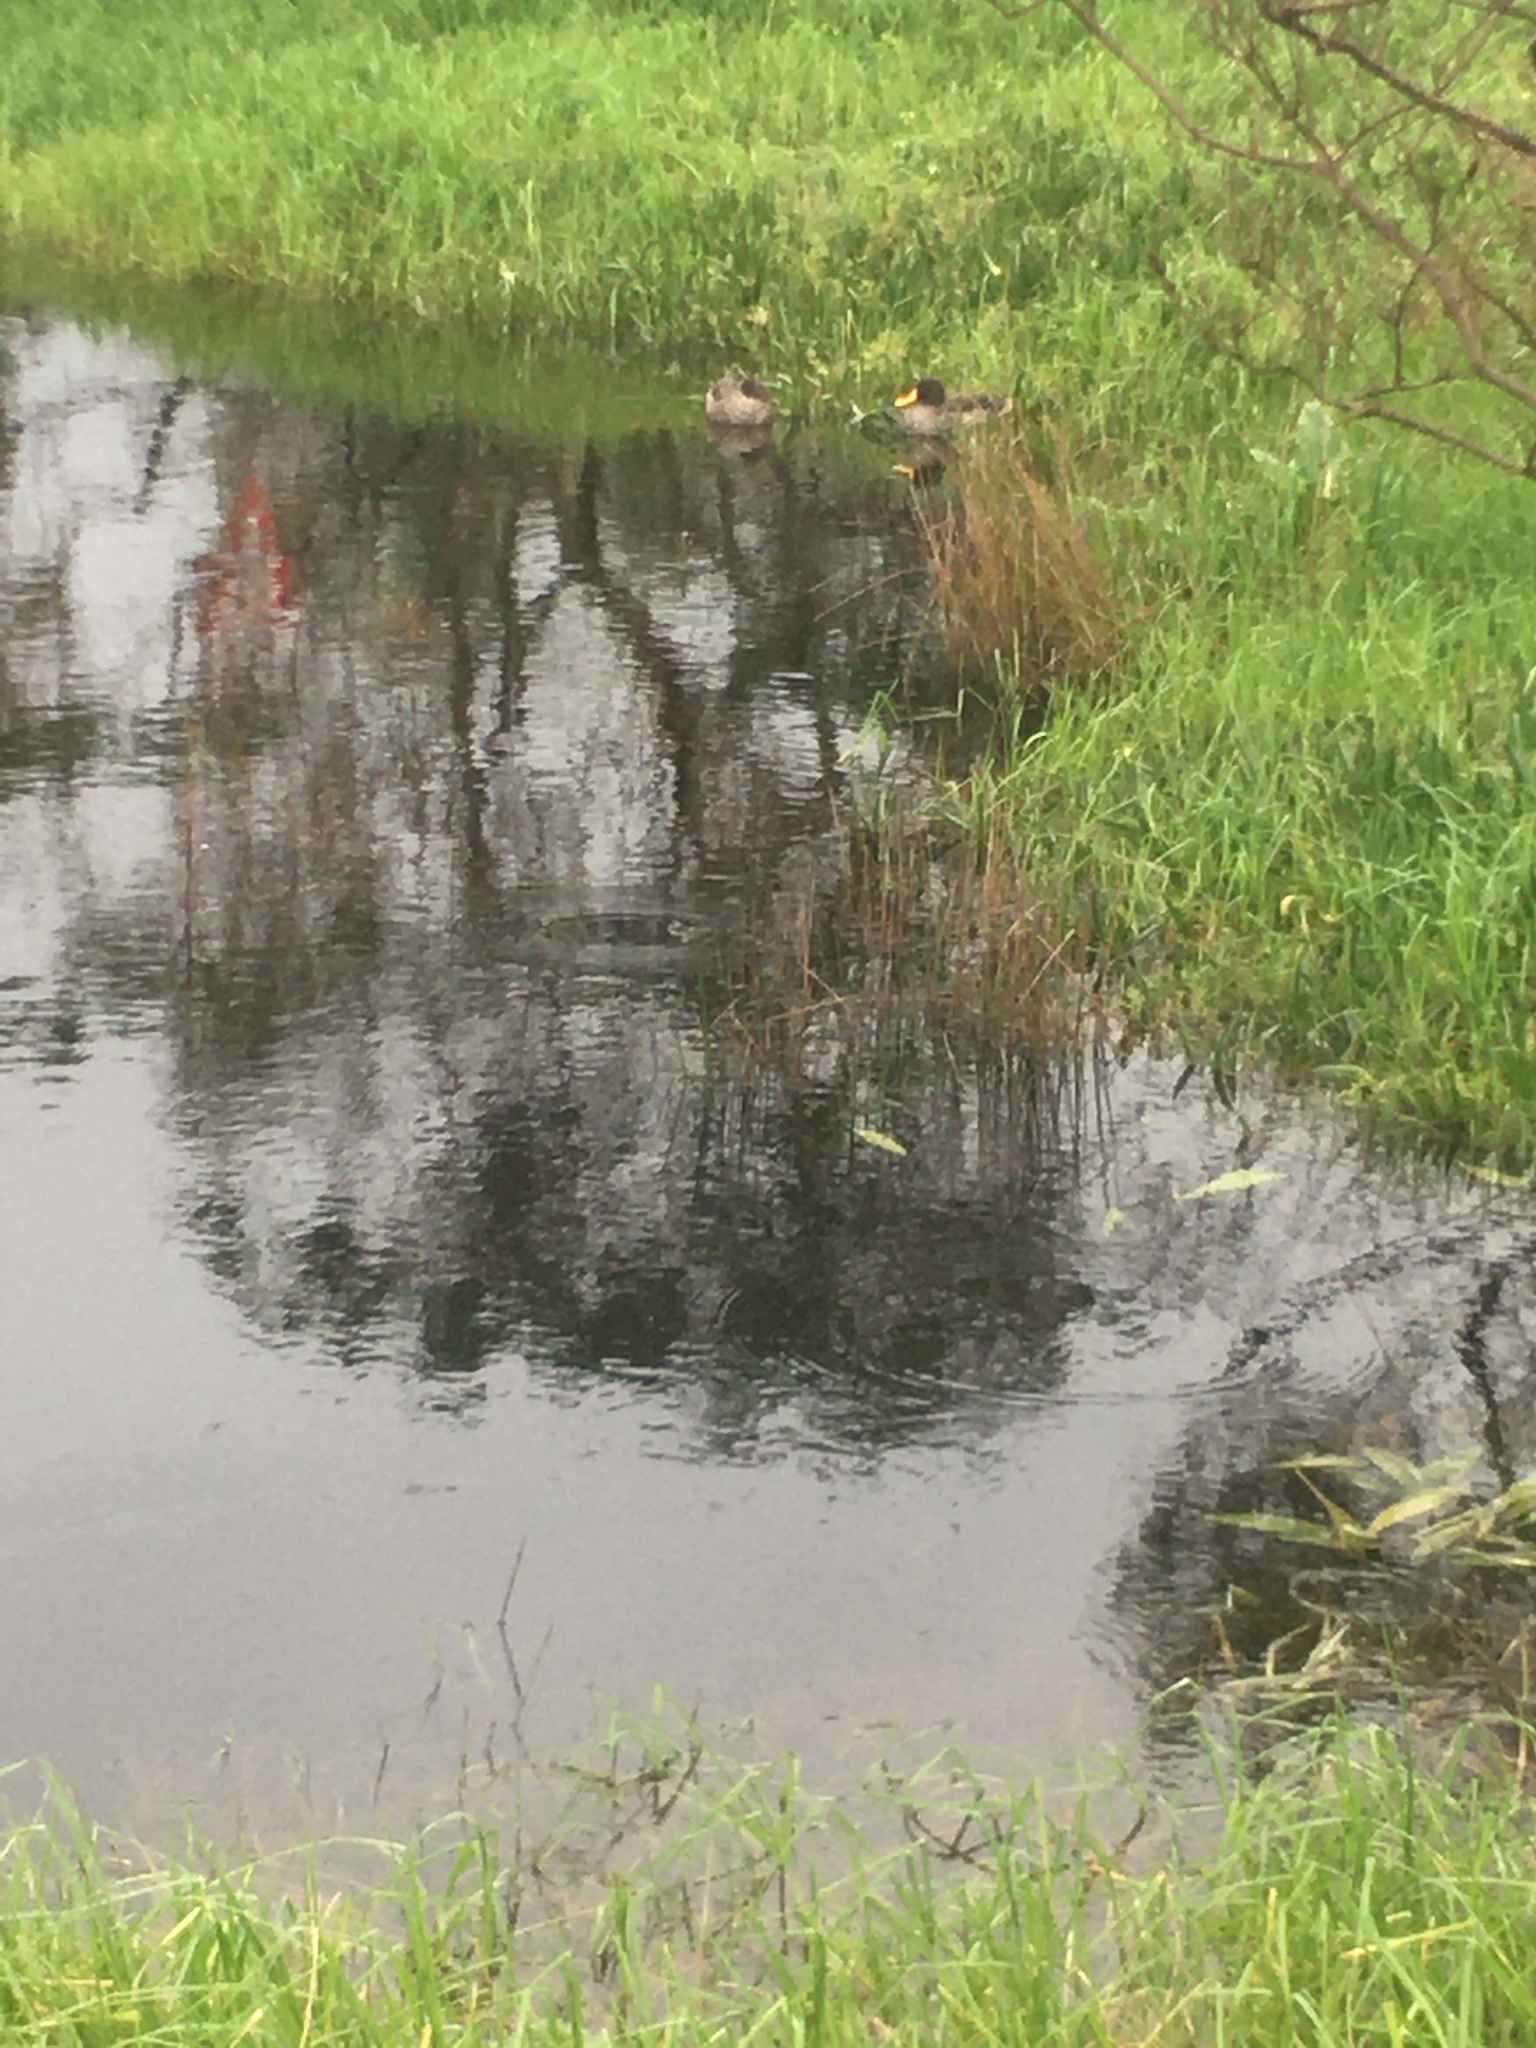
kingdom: Animalia
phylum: Chordata
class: Aves
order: Anseriformes
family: Anatidae
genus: Anas
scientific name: Anas undulata
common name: Yellow-billed duck
